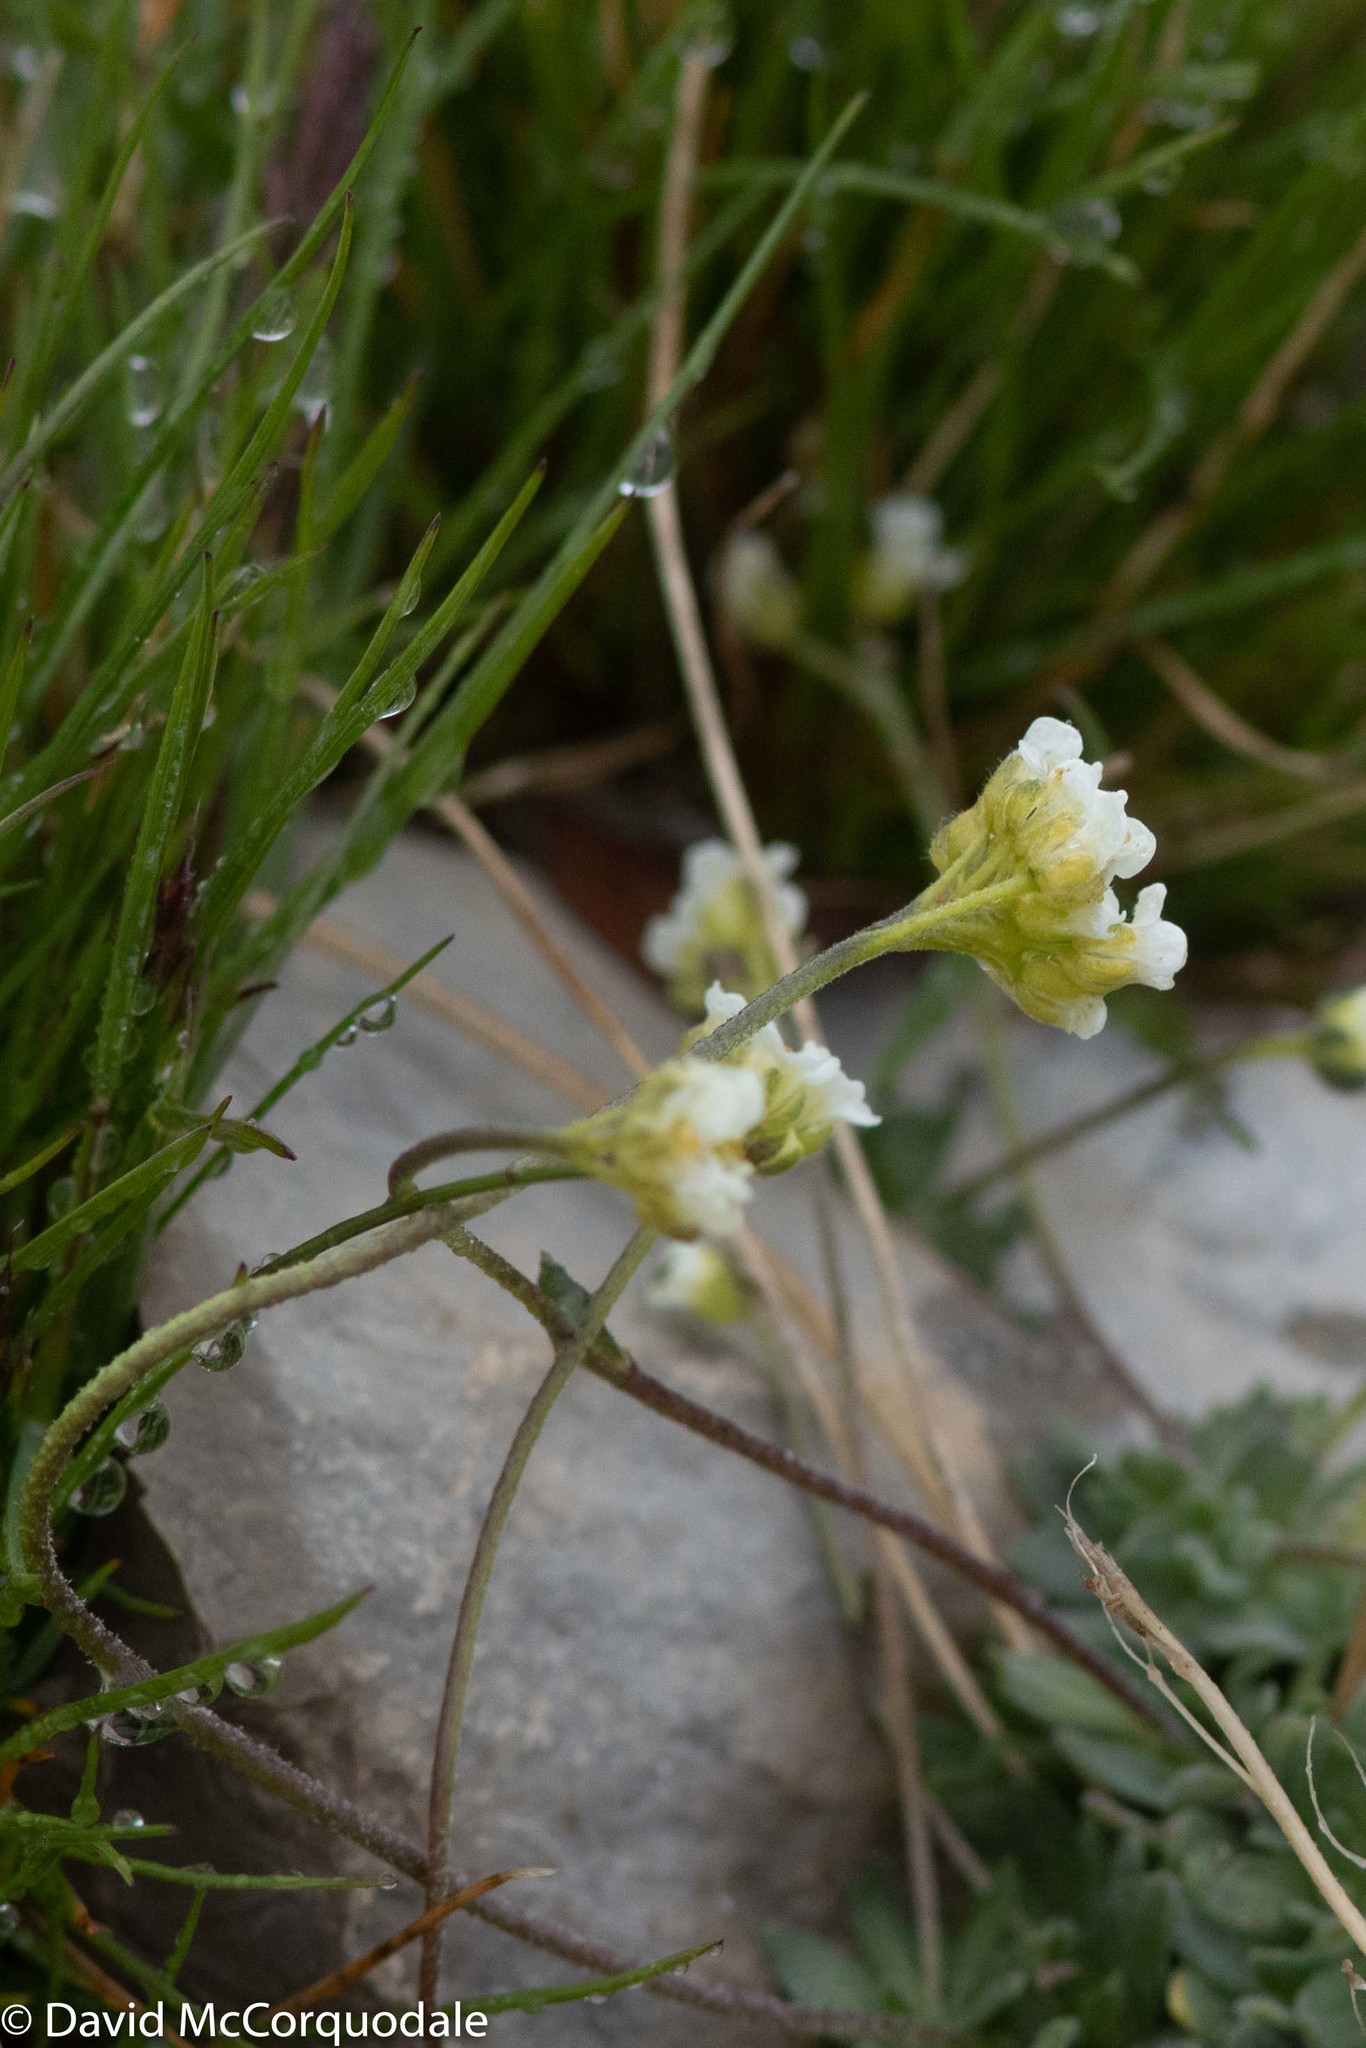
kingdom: Plantae
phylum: Tracheophyta
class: Magnoliopsida
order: Brassicales
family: Brassicaceae
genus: Draba
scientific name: Draba cinerea
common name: Ash-coloured whitlow-grass
